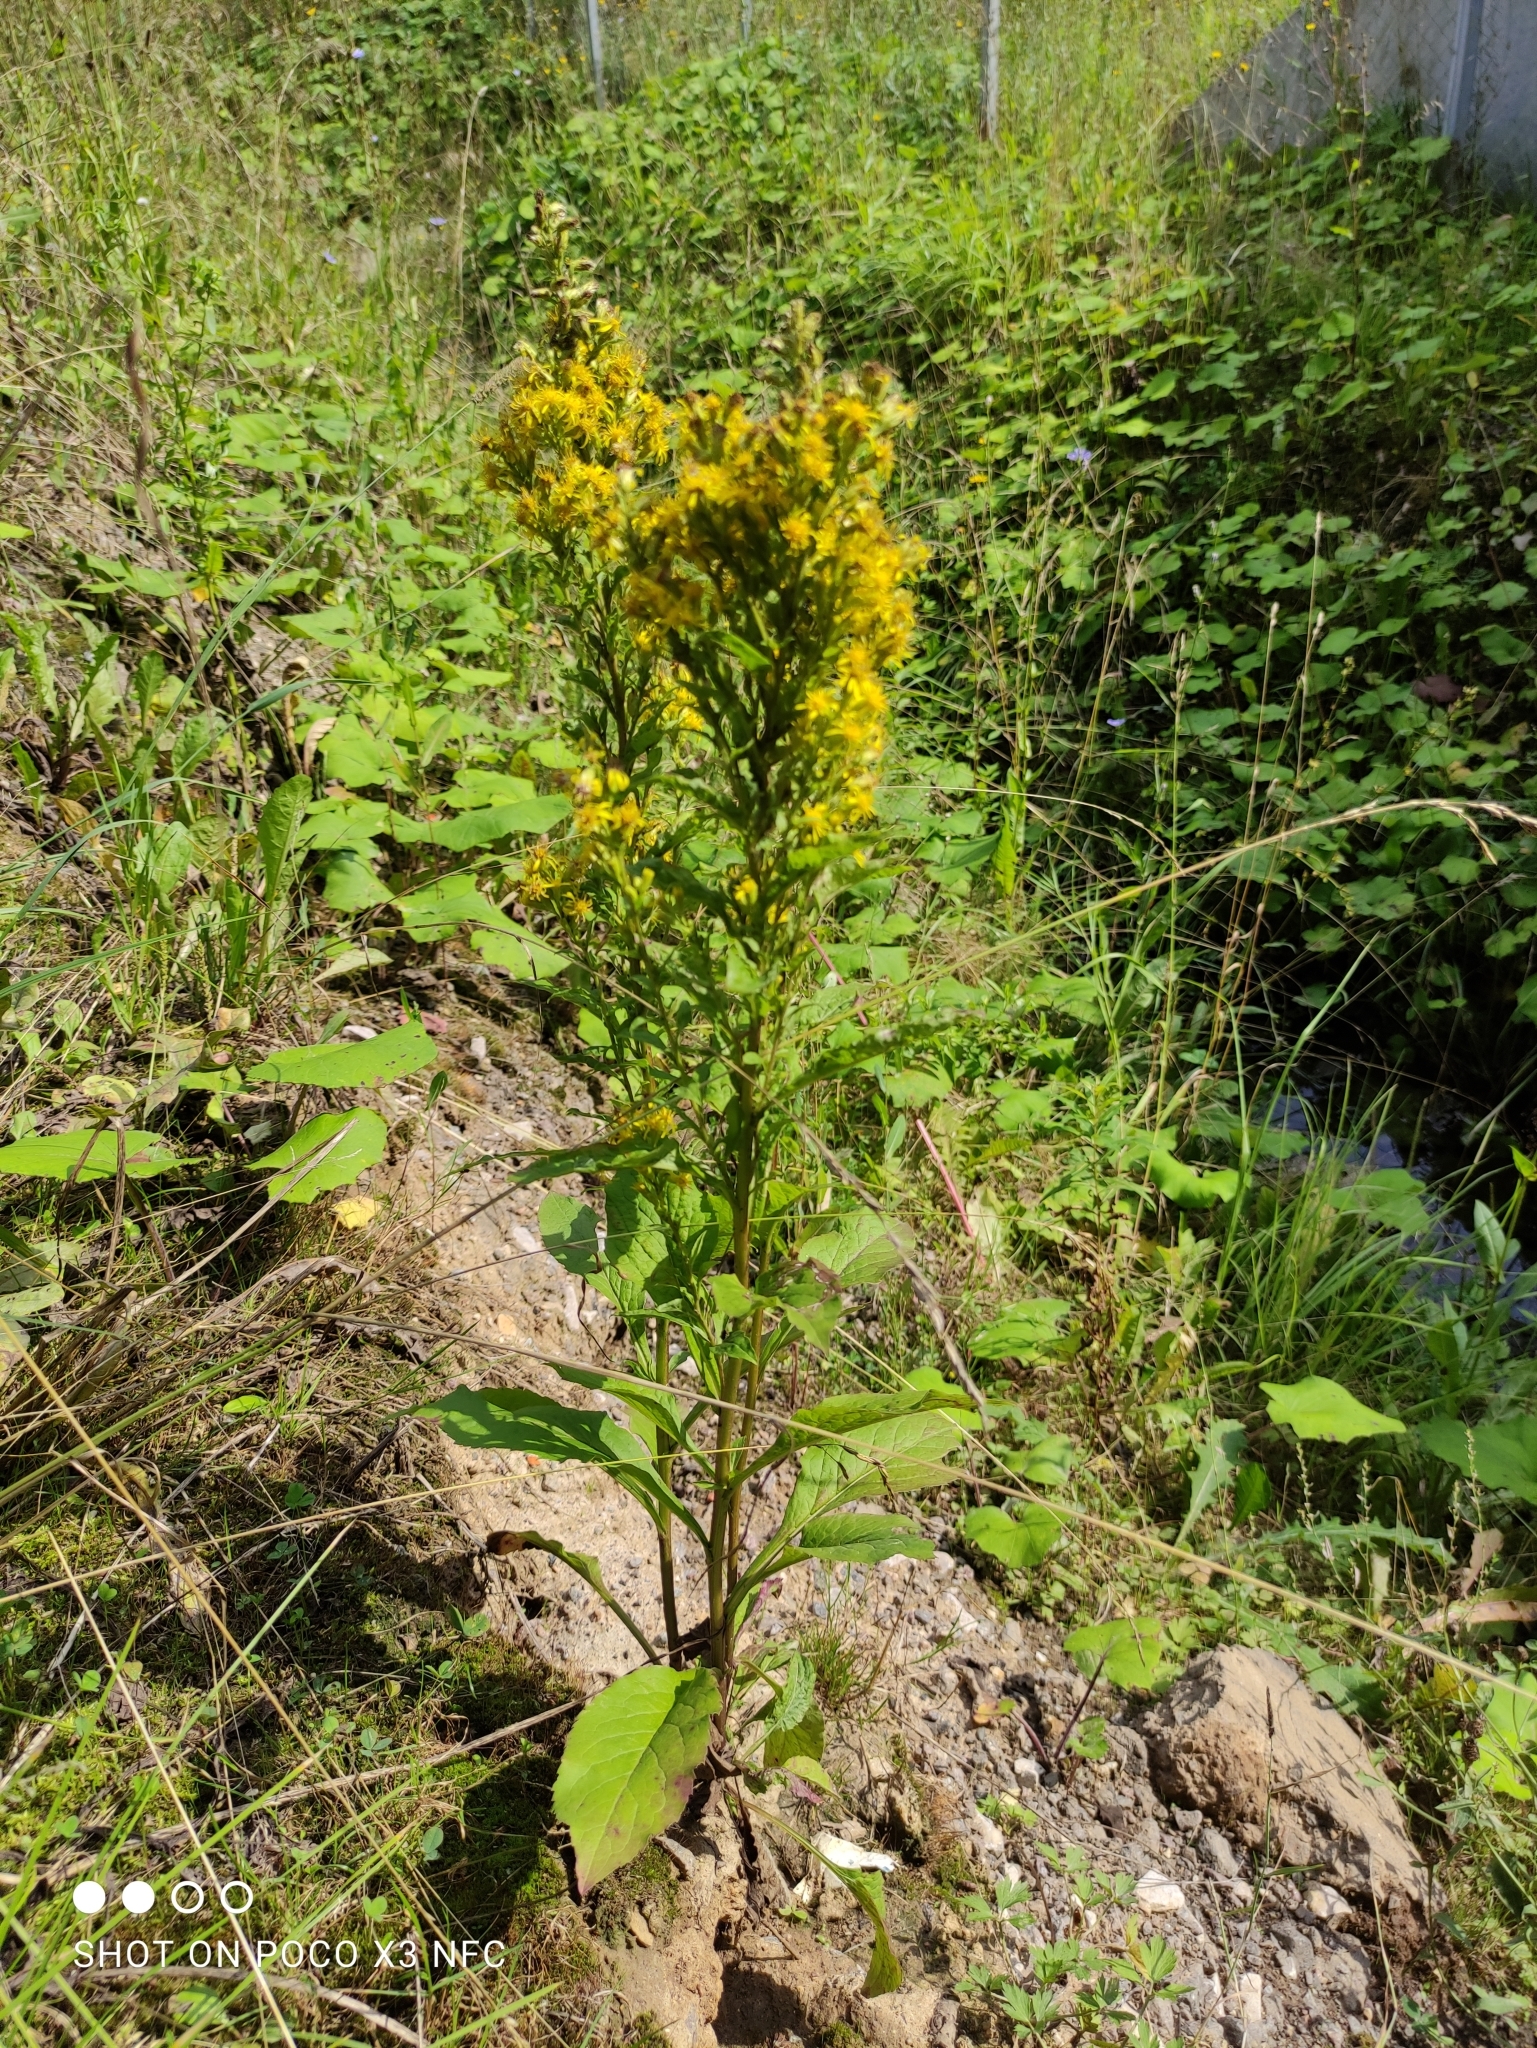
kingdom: Plantae
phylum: Tracheophyta
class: Magnoliopsida
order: Asterales
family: Asteraceae
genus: Solidago
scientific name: Solidago virgaurea
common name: Goldenrod
